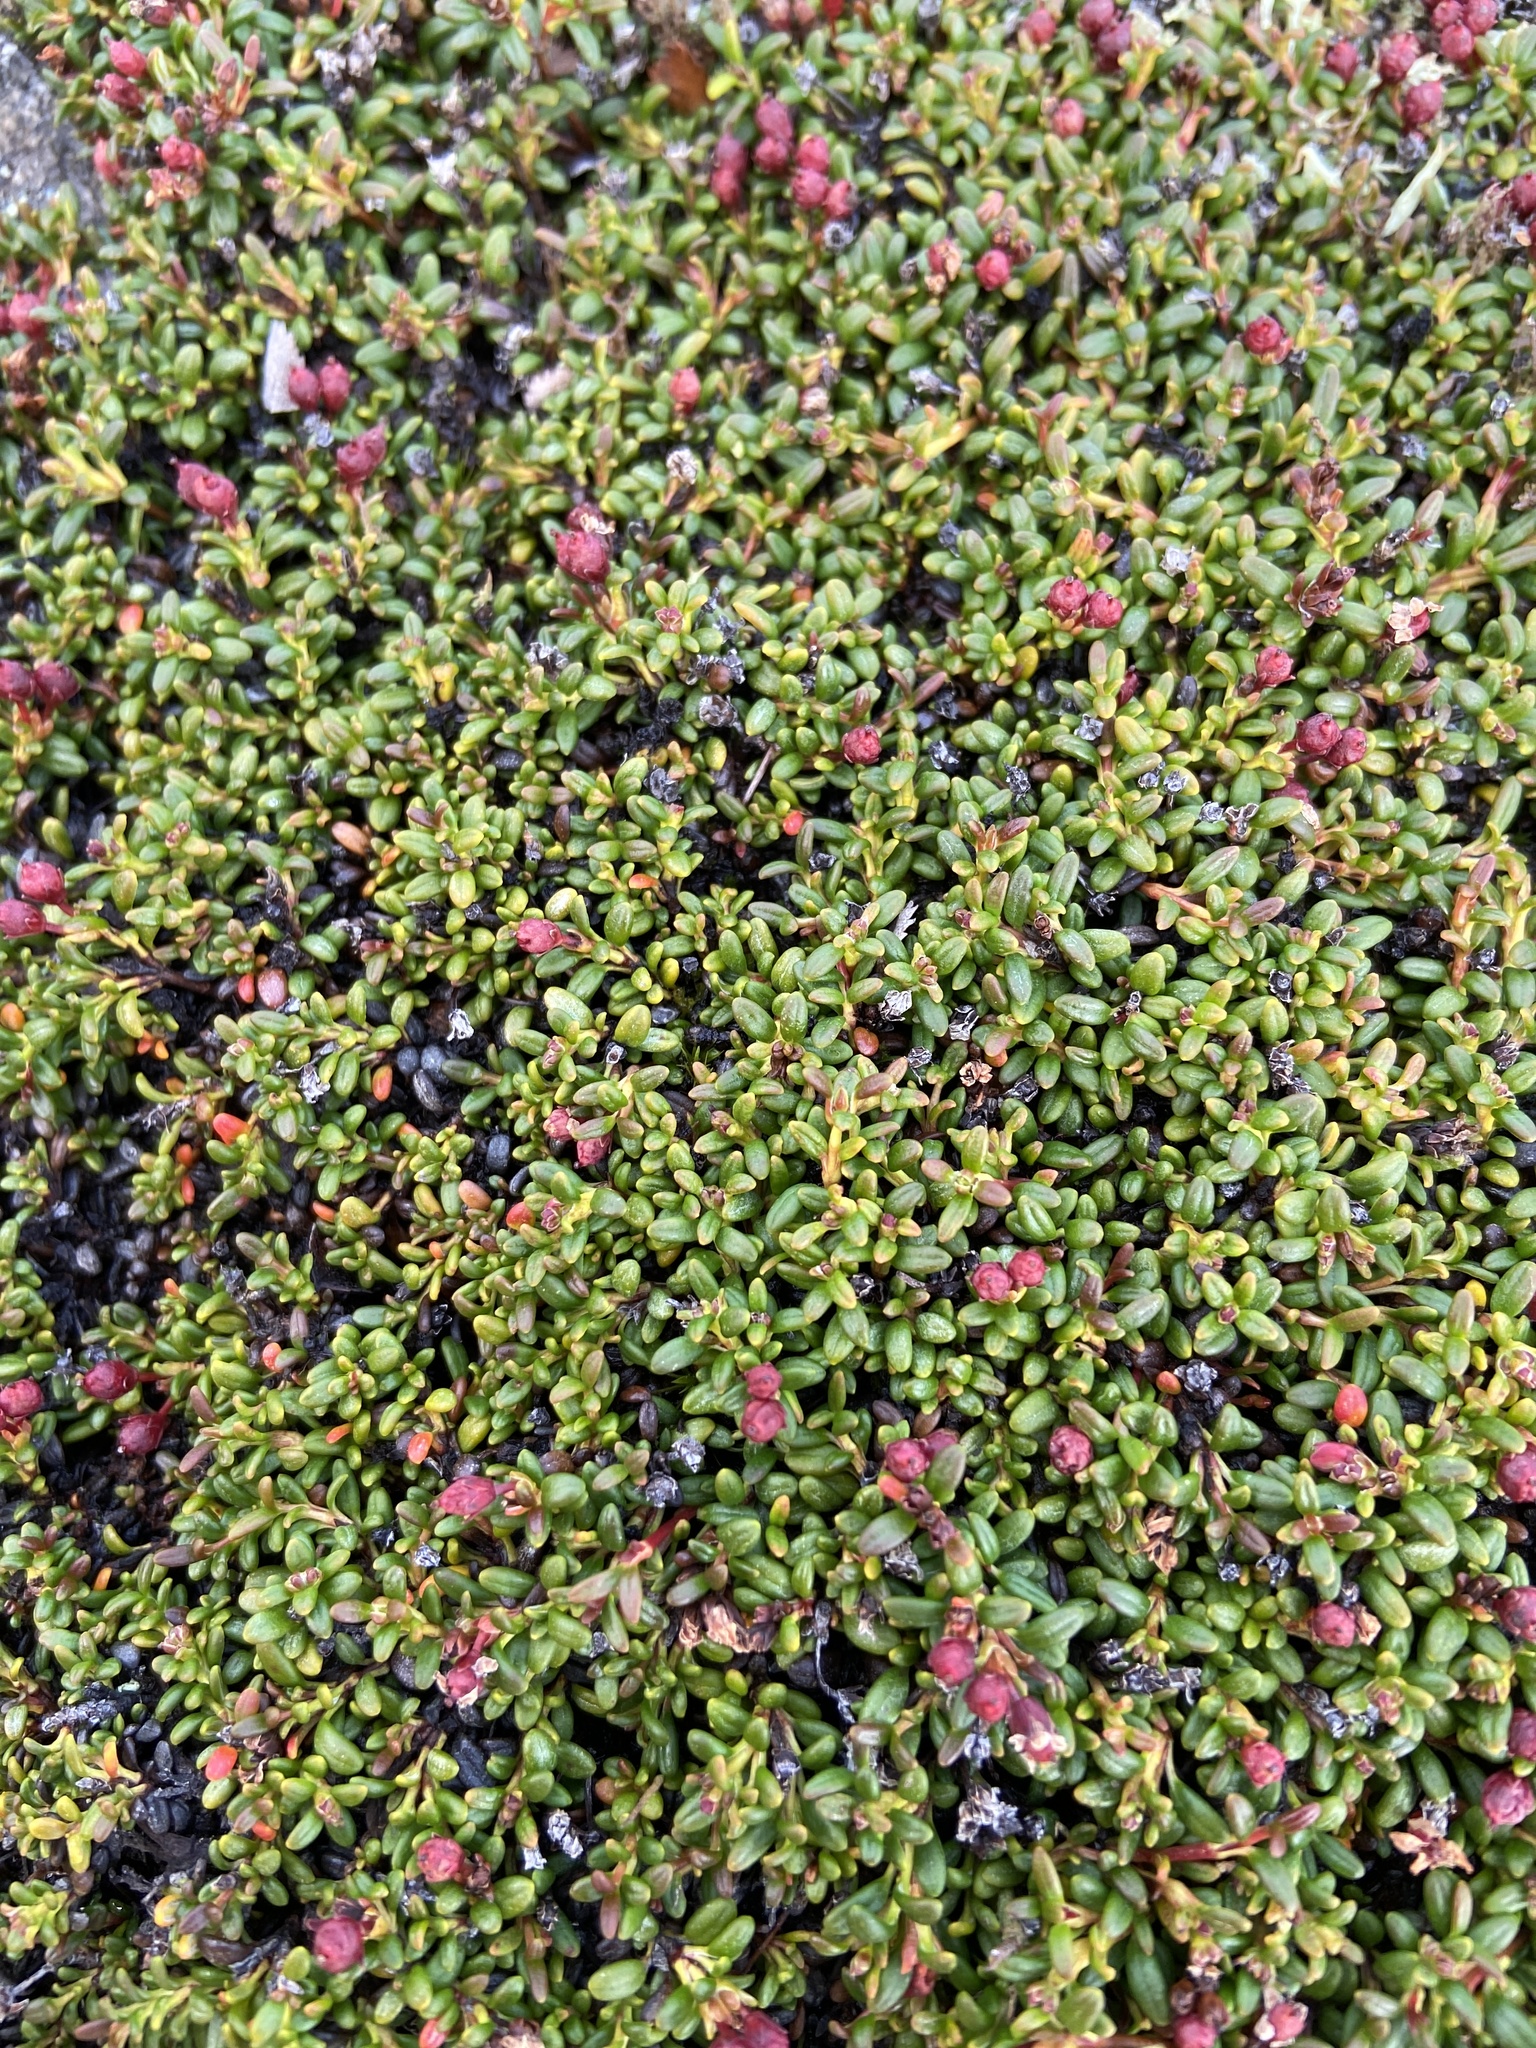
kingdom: Plantae
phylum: Tracheophyta
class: Magnoliopsida
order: Ericales
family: Ericaceae
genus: Kalmia
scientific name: Kalmia procumbens
